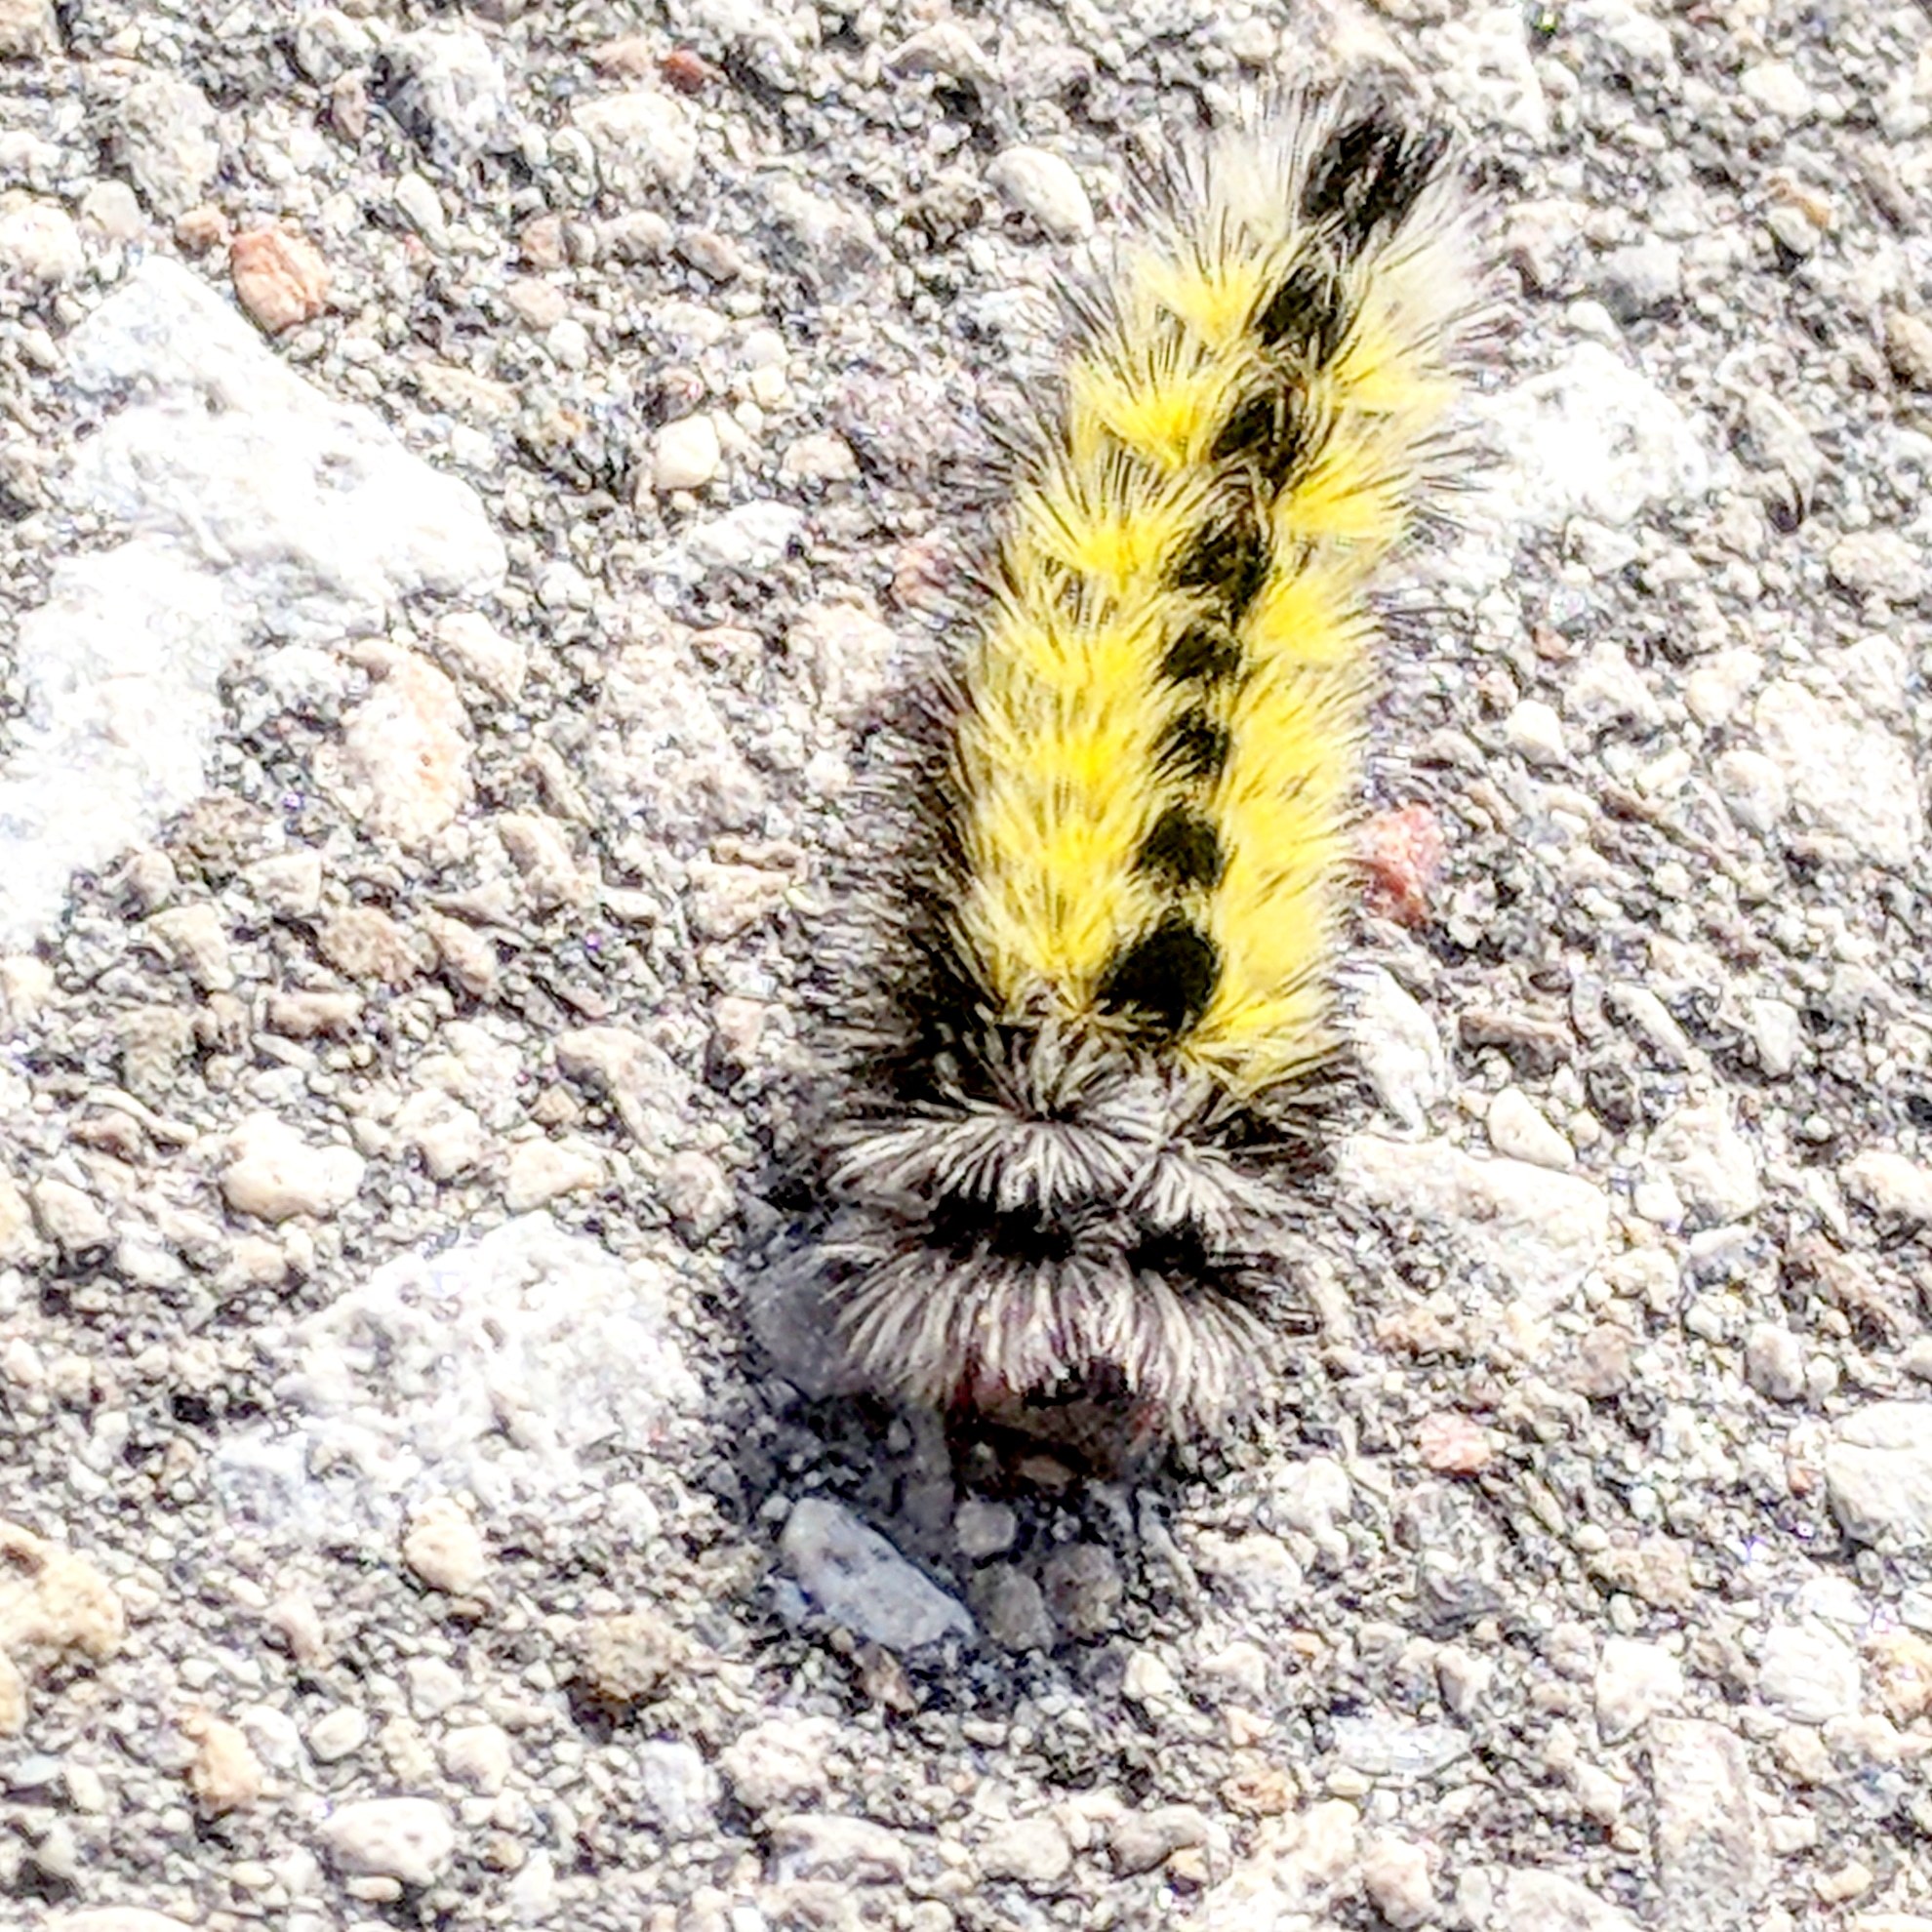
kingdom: Animalia
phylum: Arthropoda
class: Insecta
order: Lepidoptera
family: Erebidae
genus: Ctenucha
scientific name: Ctenucha virginica
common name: Virginia ctenucha moth
